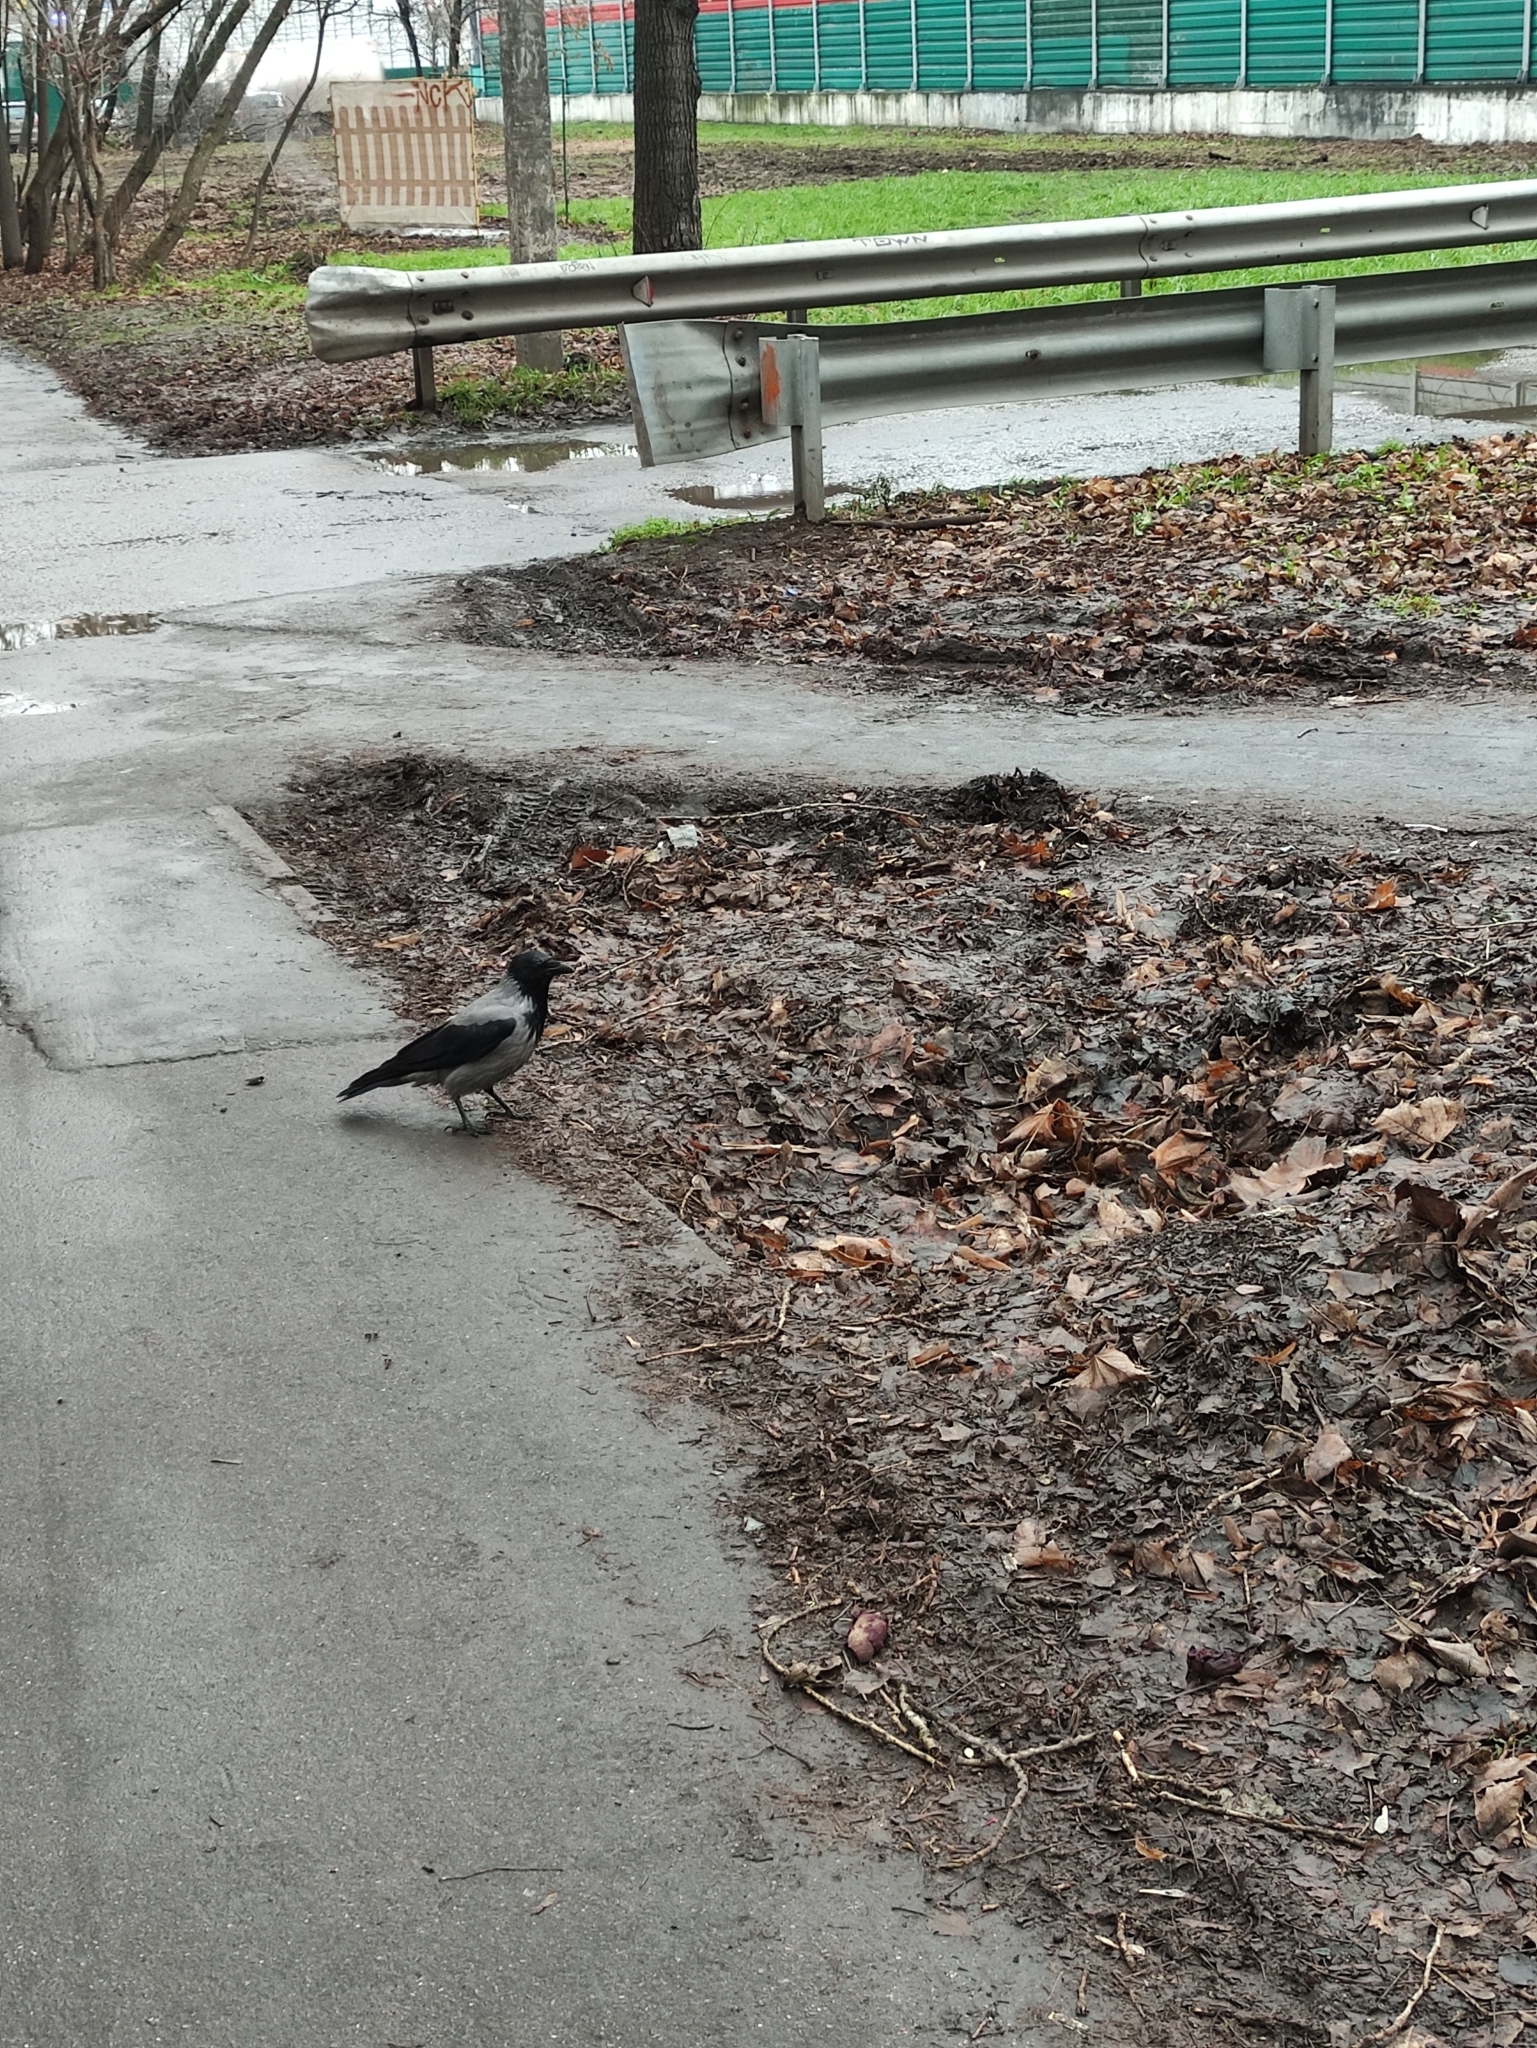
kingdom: Animalia
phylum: Chordata
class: Aves
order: Passeriformes
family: Corvidae
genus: Corvus
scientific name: Corvus cornix
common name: Hooded crow
